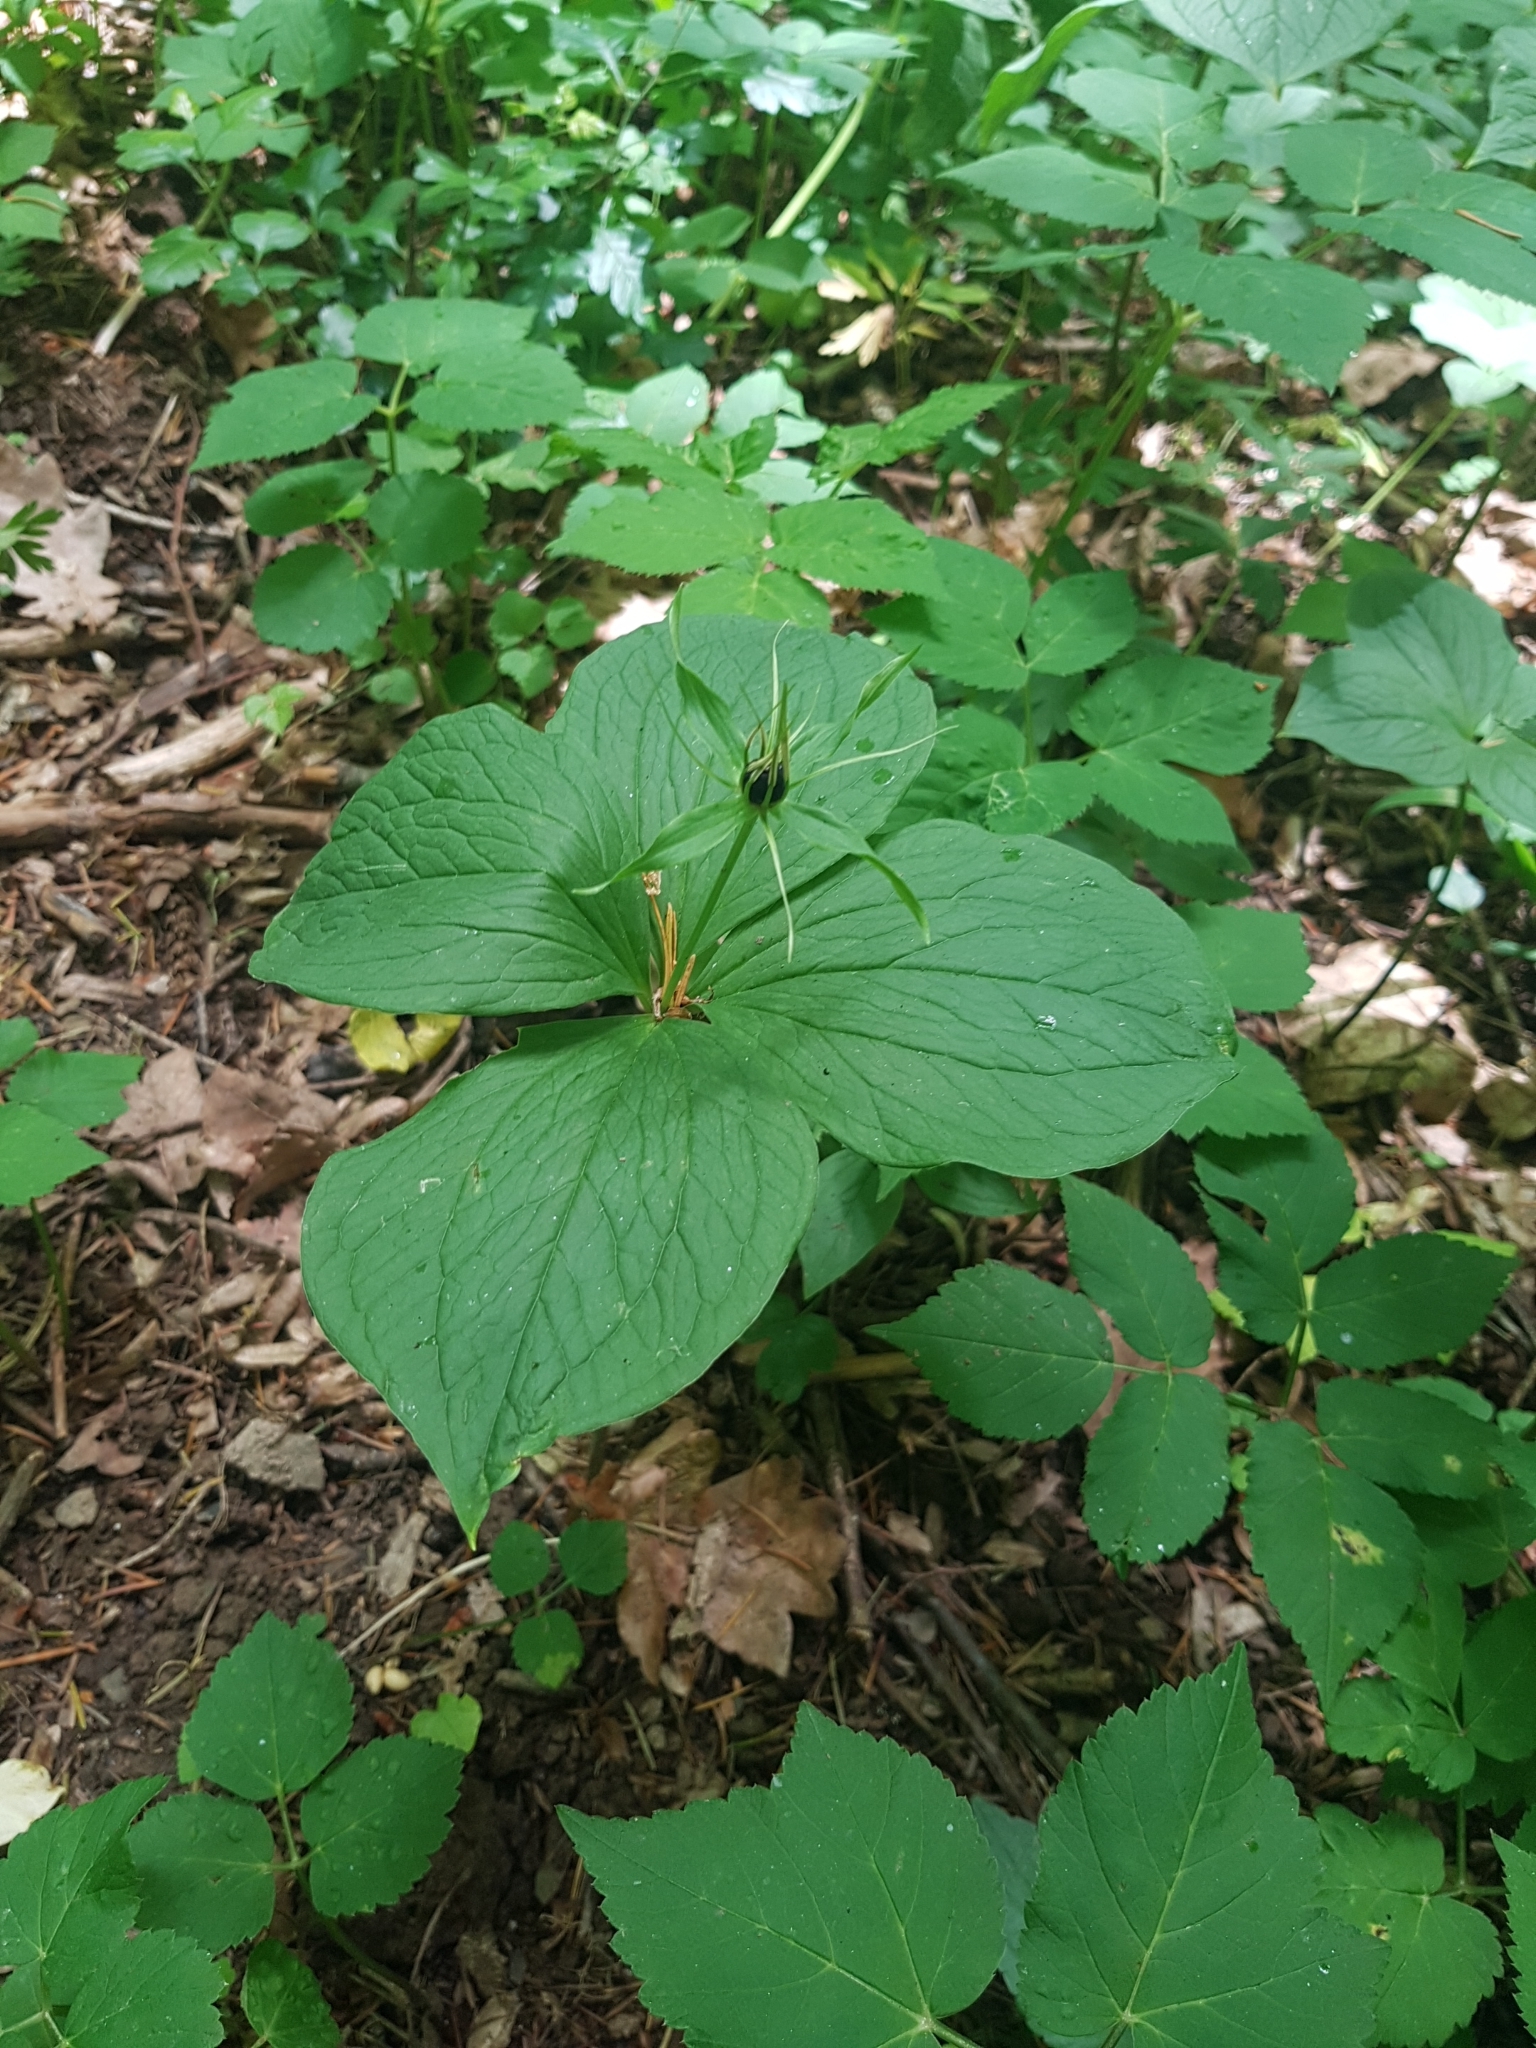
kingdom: Plantae
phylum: Tracheophyta
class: Liliopsida
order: Liliales
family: Melanthiaceae
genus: Paris
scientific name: Paris quadrifolia
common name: Herb-paris
